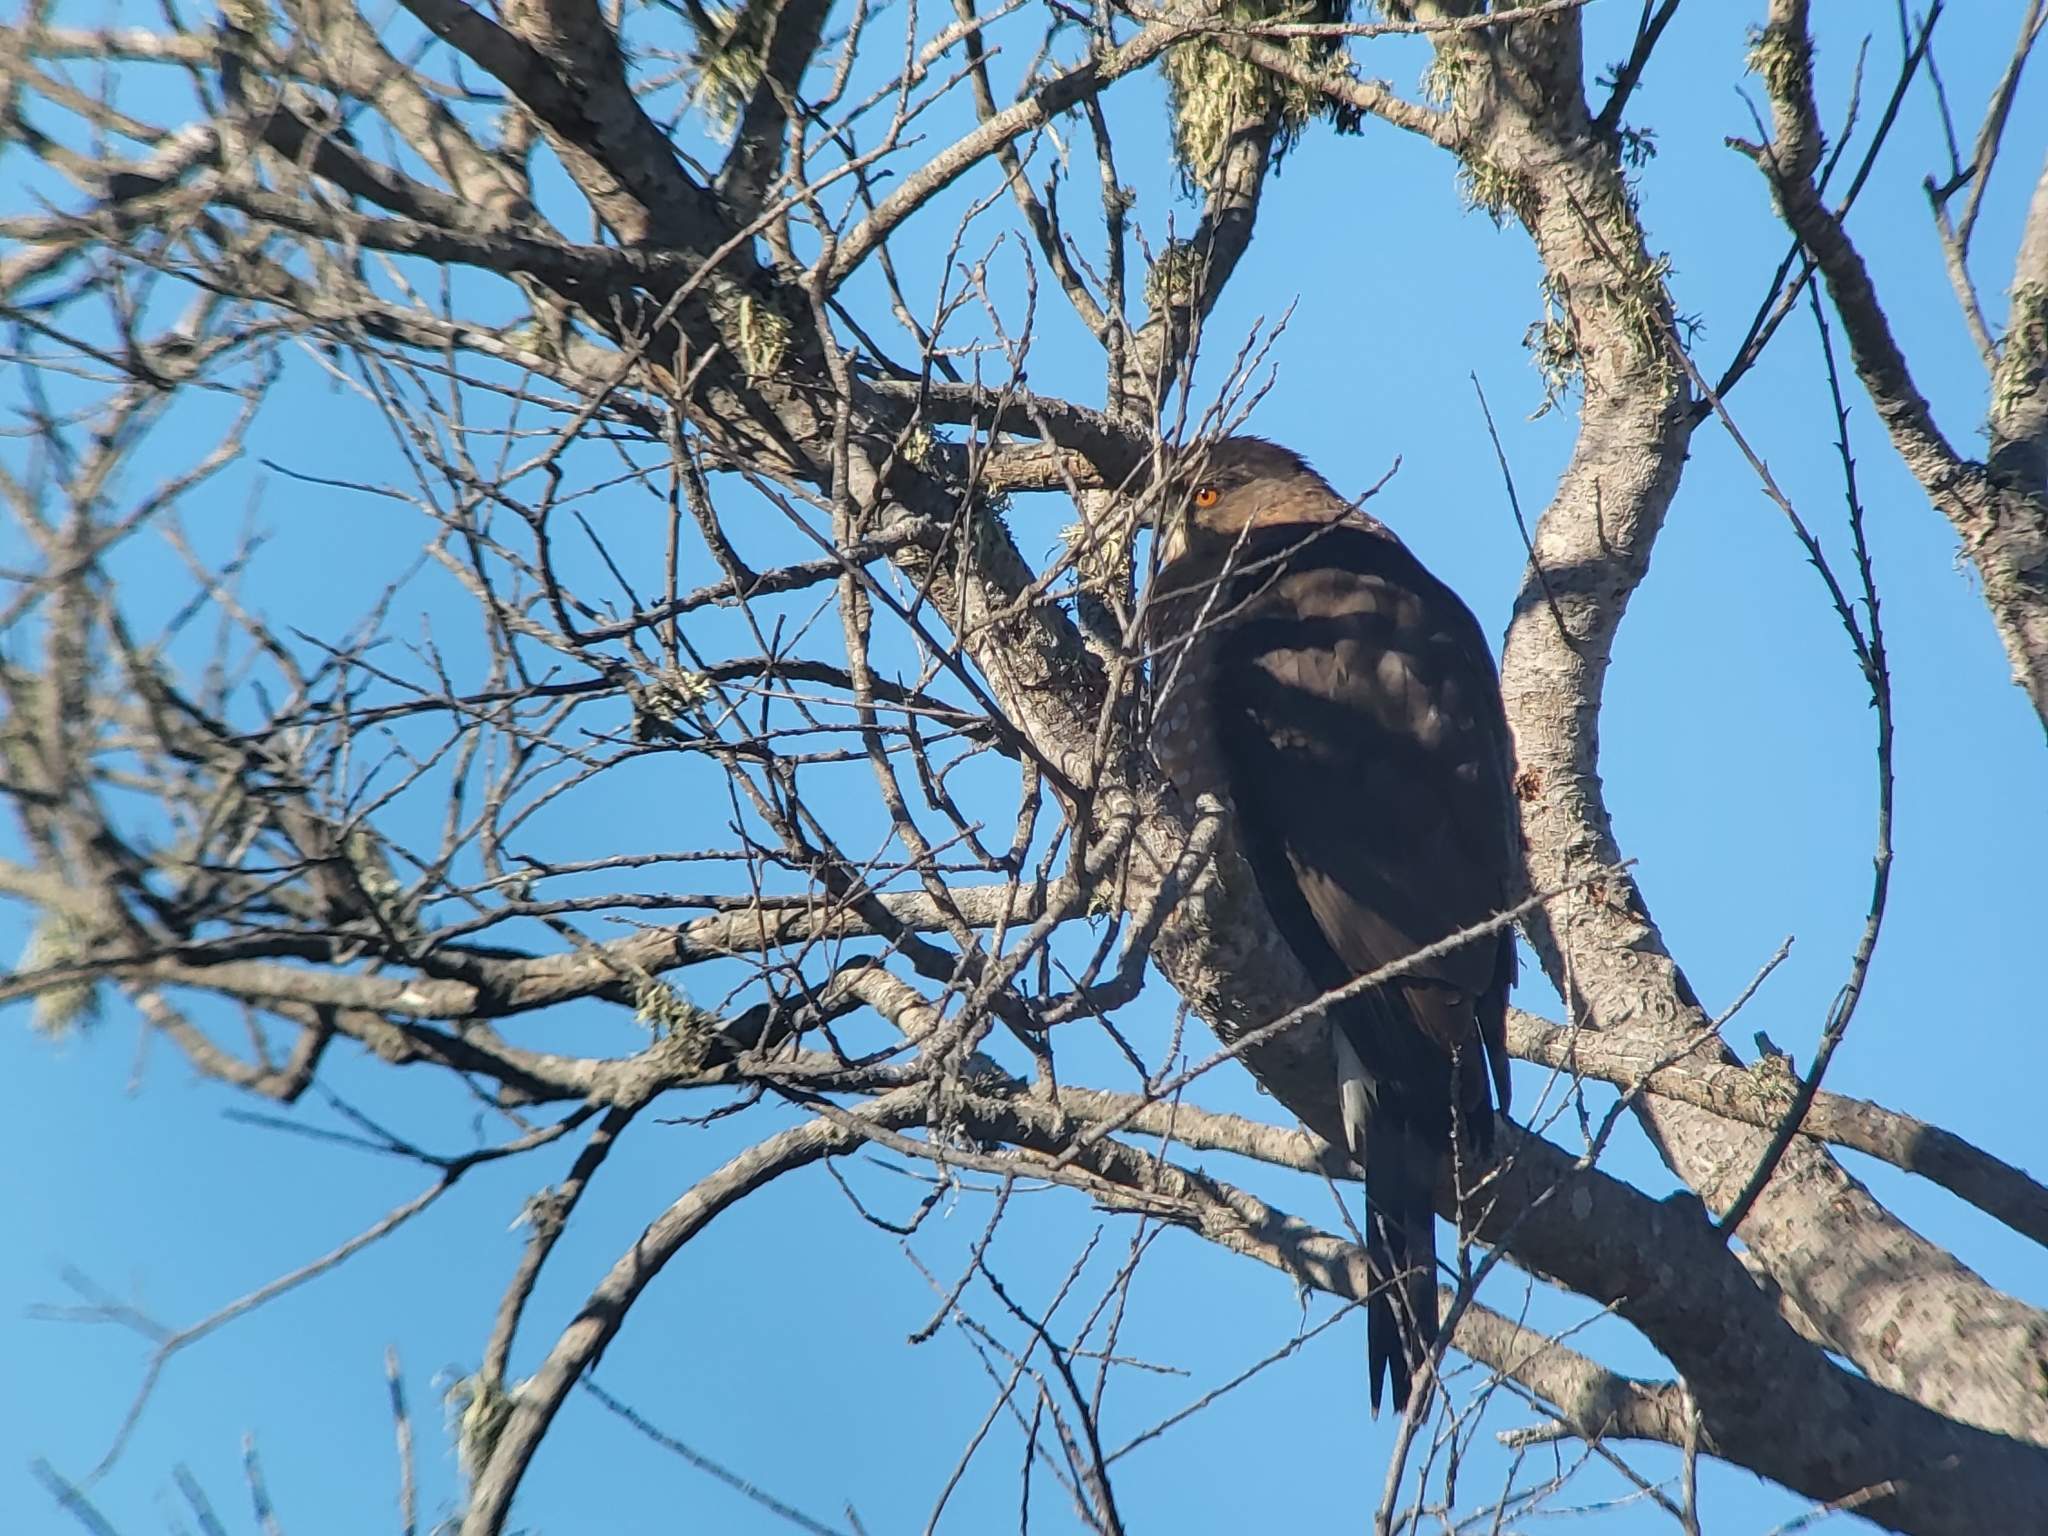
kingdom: Animalia
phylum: Chordata
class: Aves
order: Accipitriformes
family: Accipitridae
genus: Accipiter
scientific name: Accipiter cooperii
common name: Cooper's hawk
